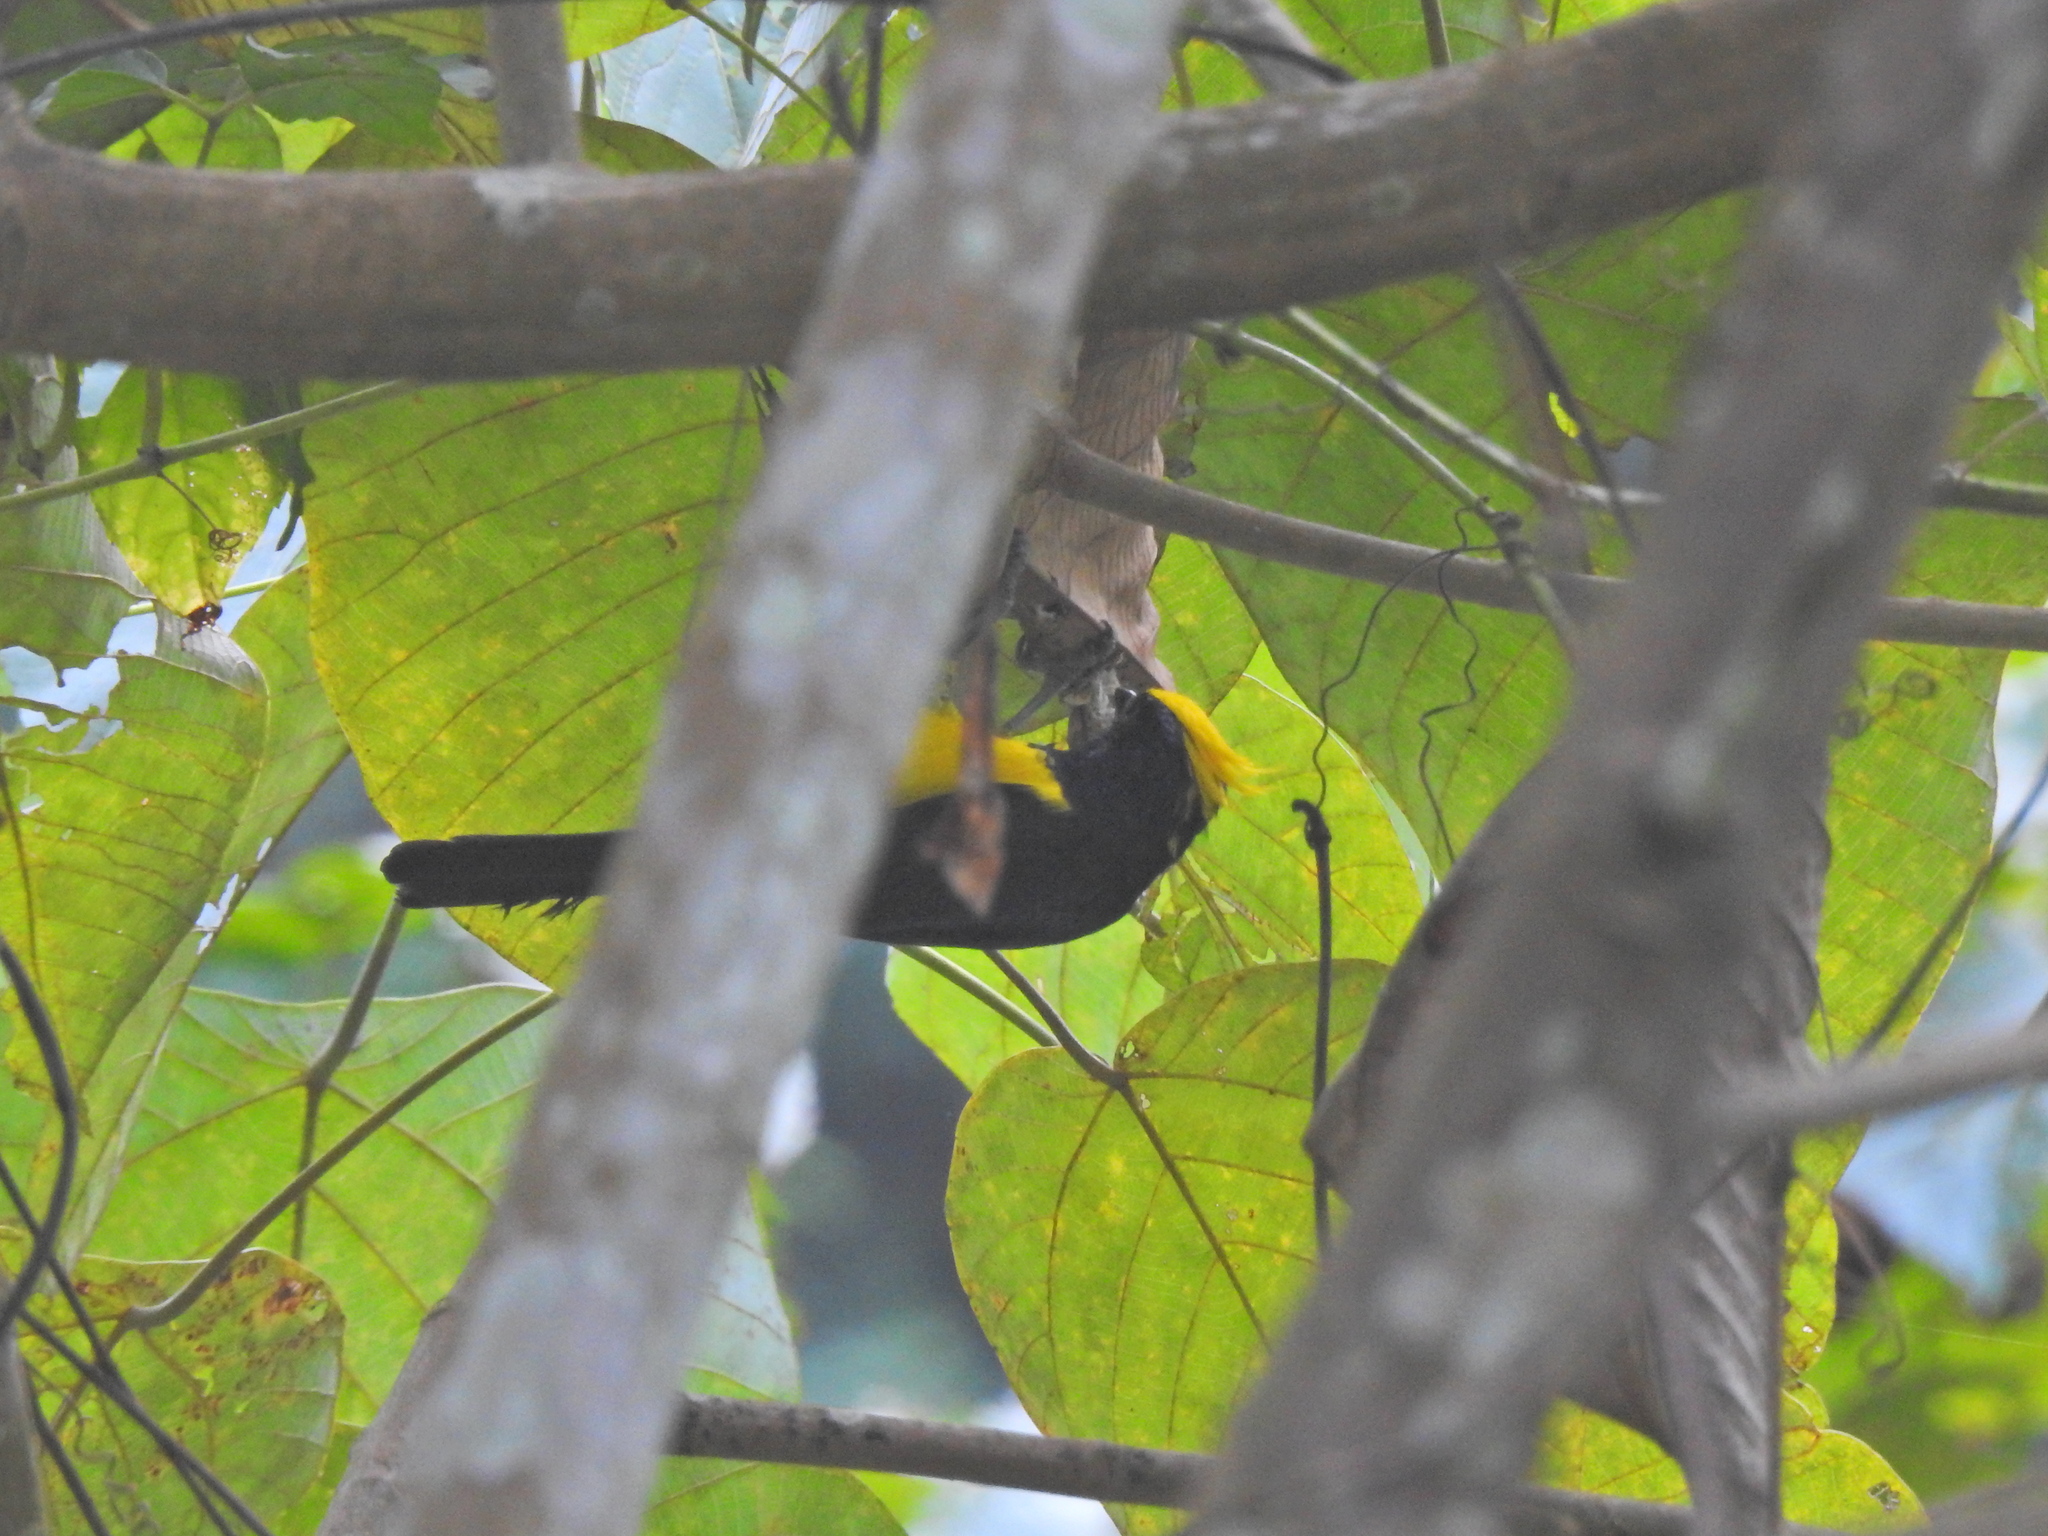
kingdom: Animalia
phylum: Chordata
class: Aves
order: Passeriformes
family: Paridae
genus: Melanochlora
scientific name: Melanochlora sultanea
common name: Sultan tit
